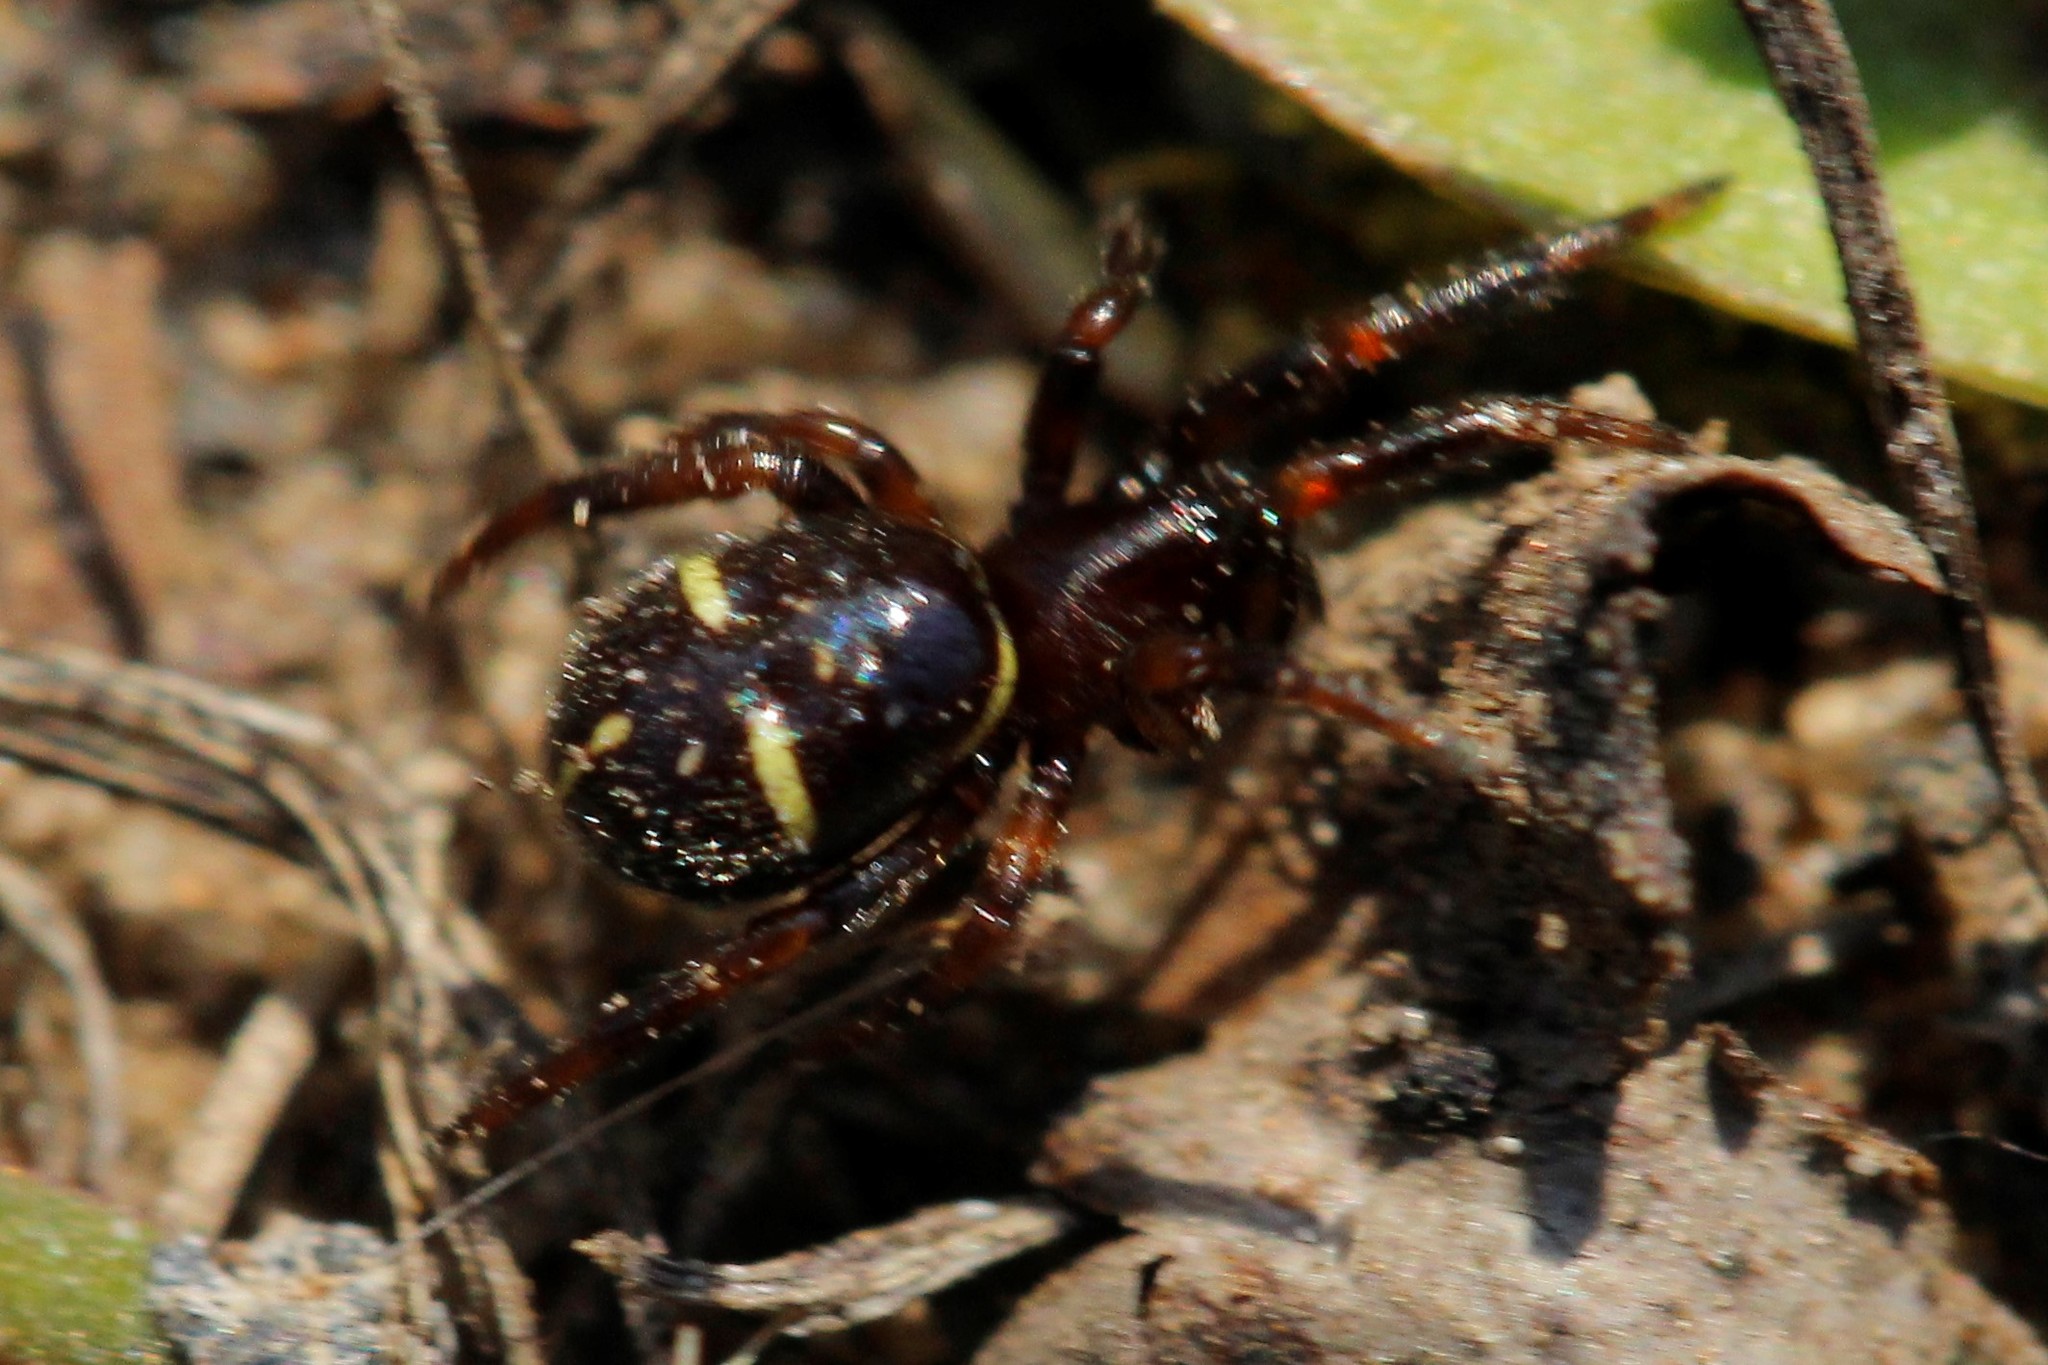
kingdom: Animalia
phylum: Arthropoda
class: Arachnida
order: Araneae
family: Theridiidae
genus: Asagena
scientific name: Asagena phalerata
